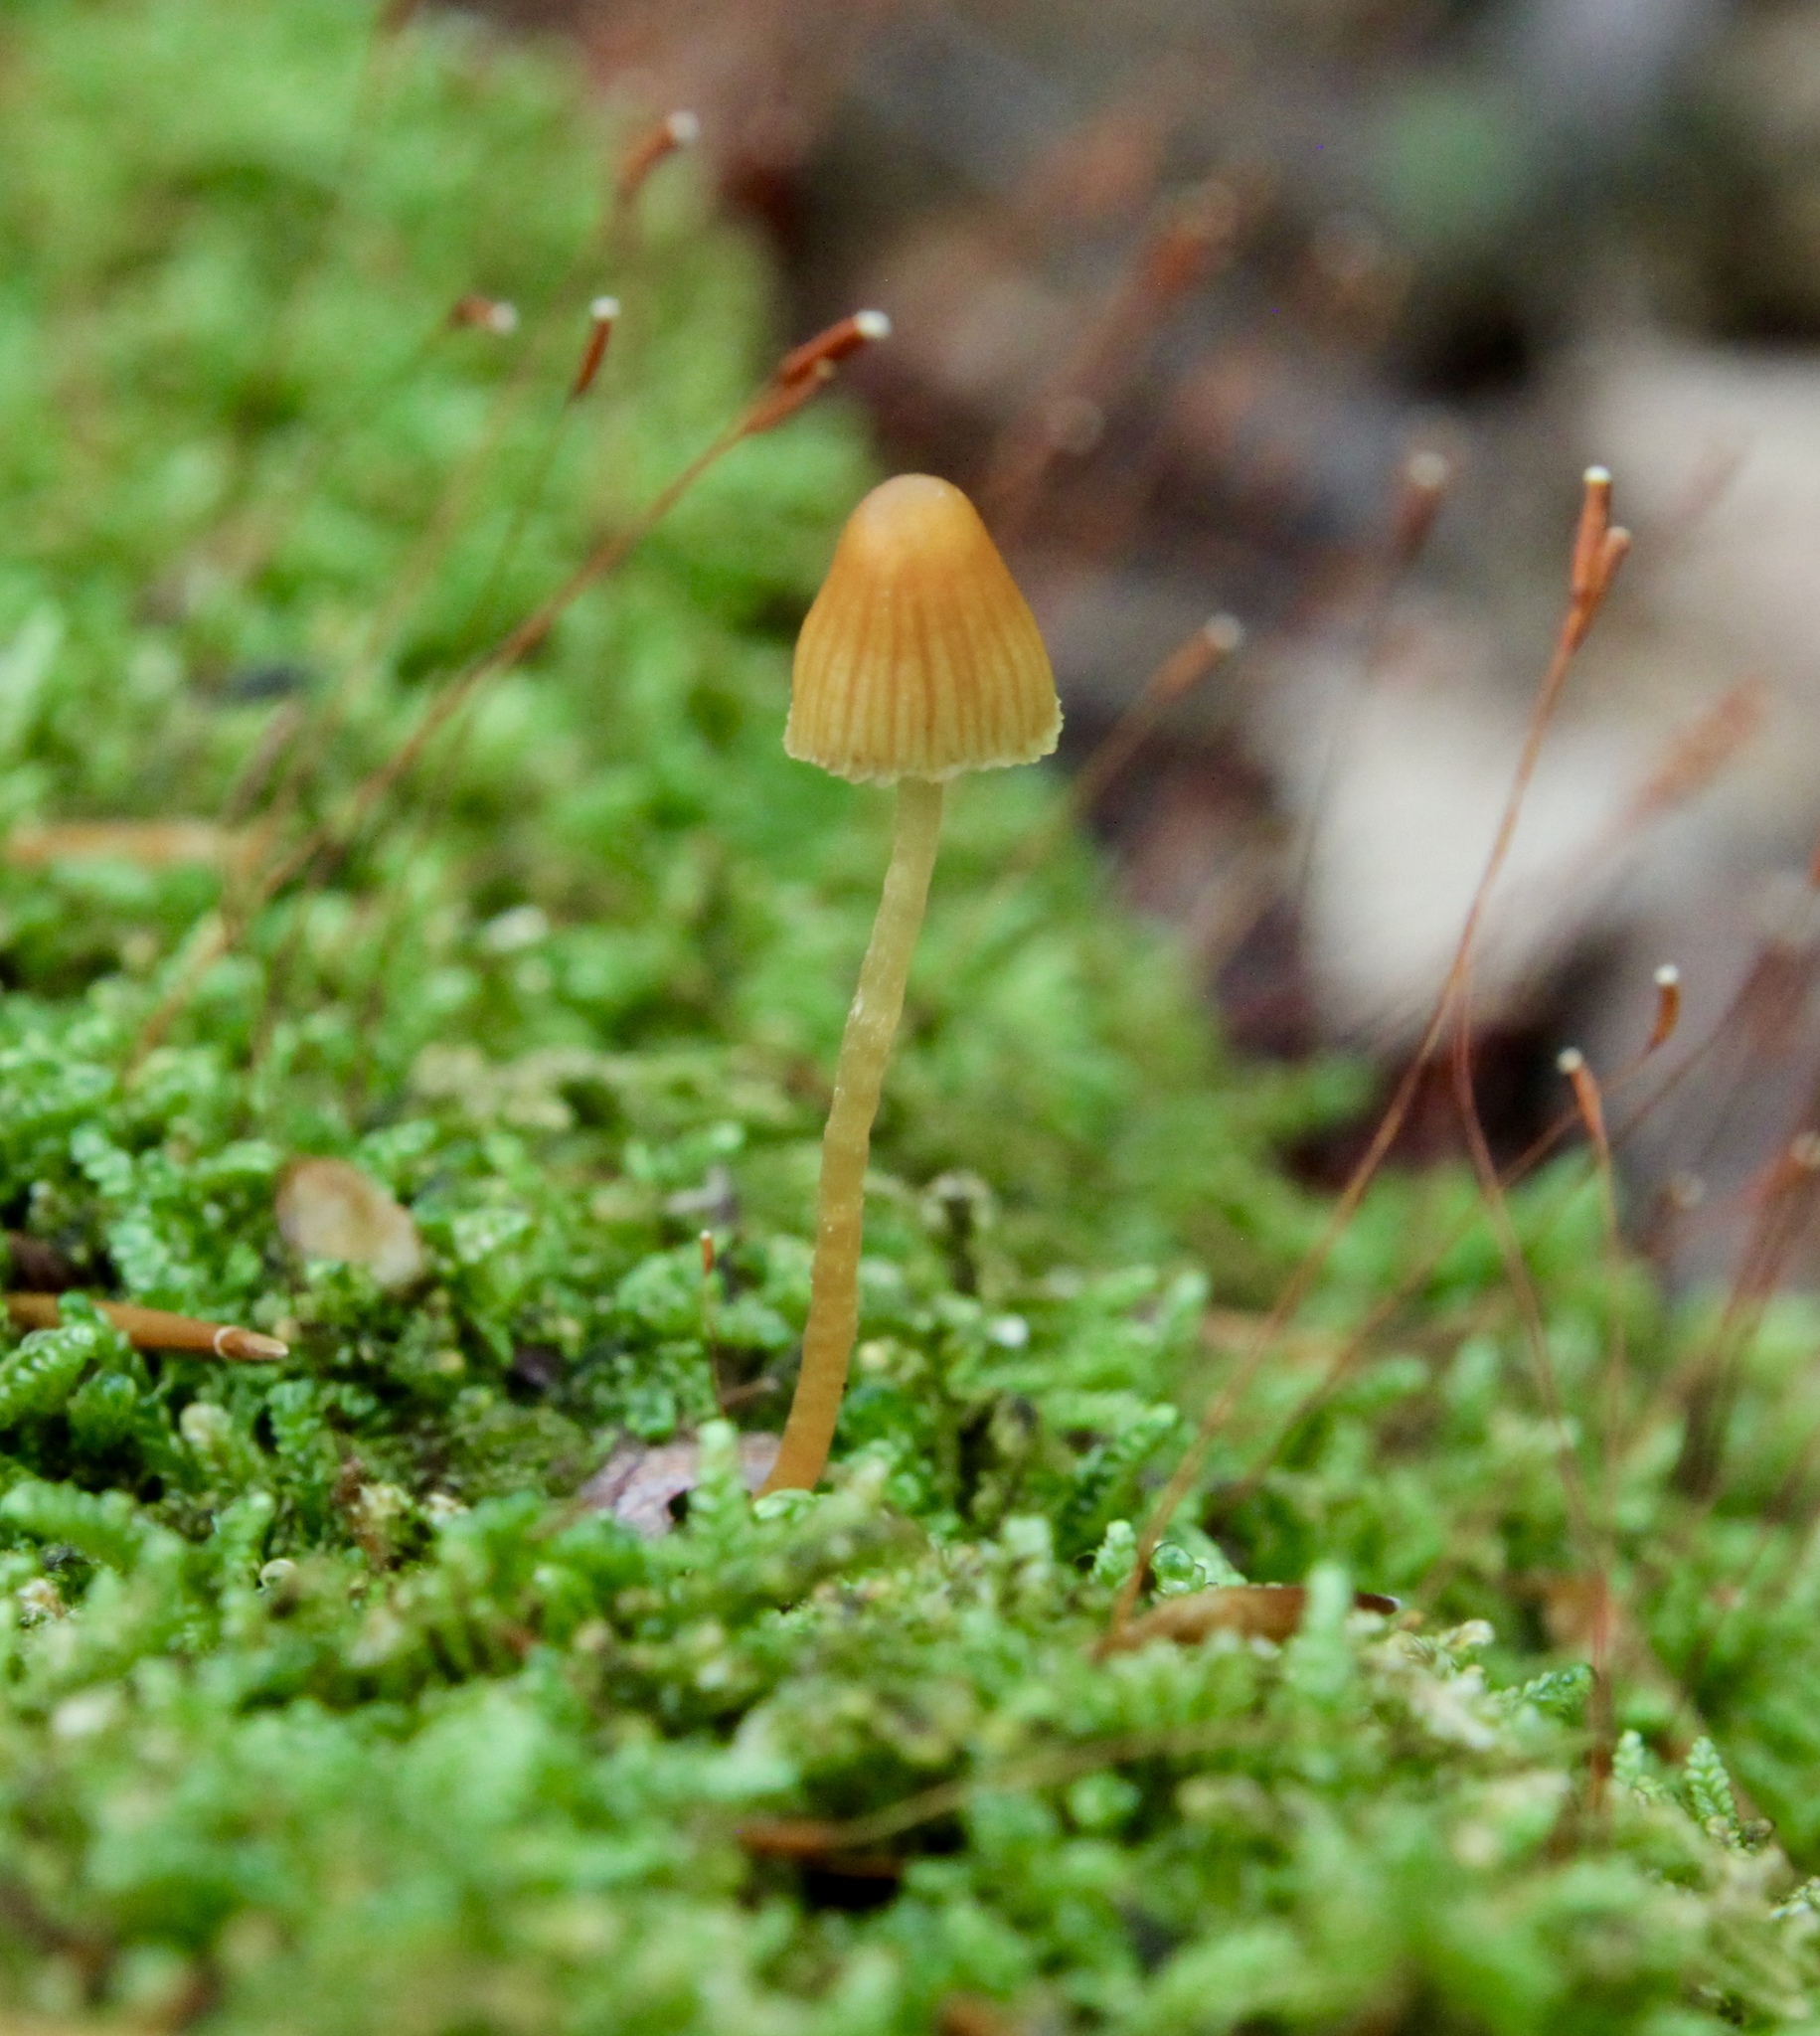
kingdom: Fungi
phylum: Basidiomycota
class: Agaricomycetes
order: Agaricales
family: Hymenogastraceae
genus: Galerina
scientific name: Galerina vittiformis
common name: Hairy leg bell
